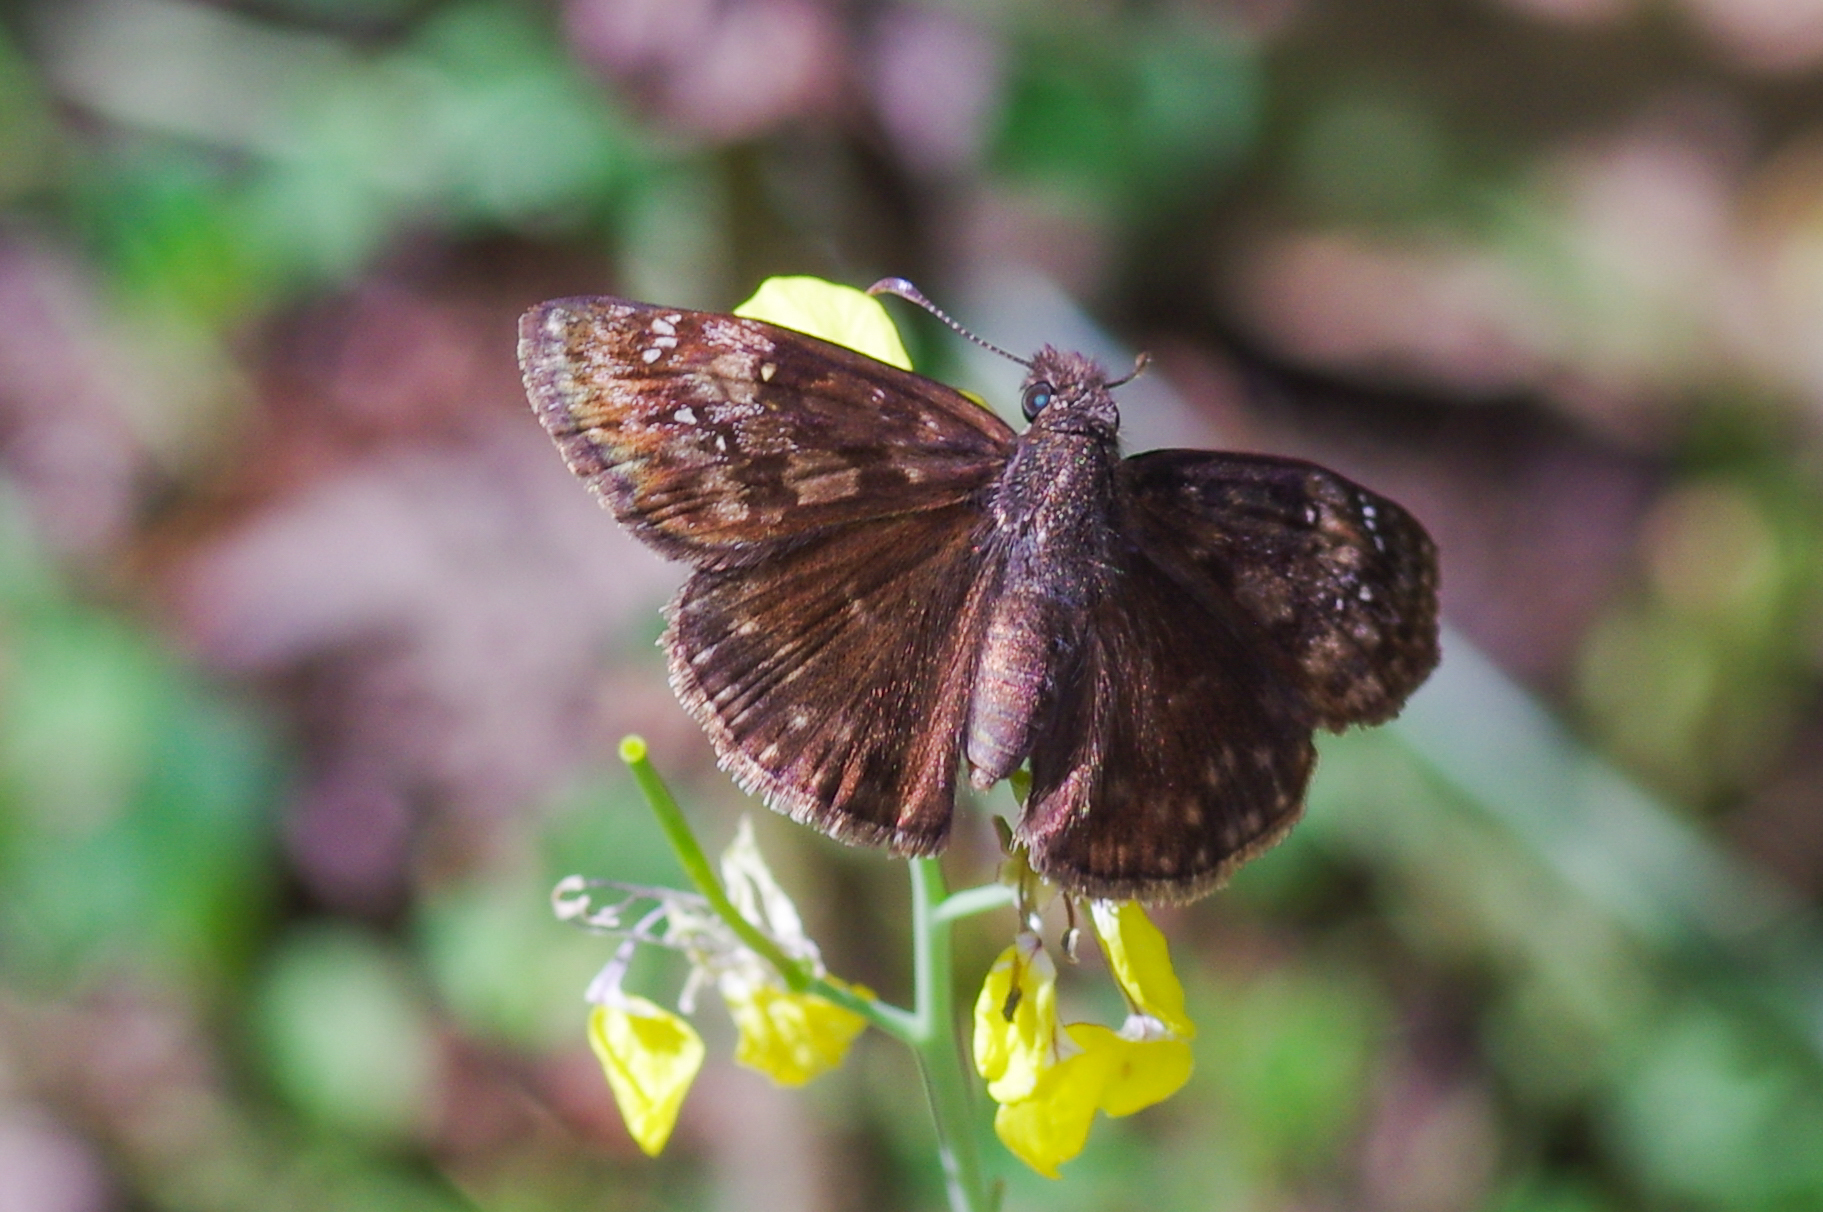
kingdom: Animalia
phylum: Arthropoda
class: Insecta
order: Lepidoptera
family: Hesperiidae
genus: Erynnis
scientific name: Erynnis baptisiae
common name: Wild indigo duskywing
